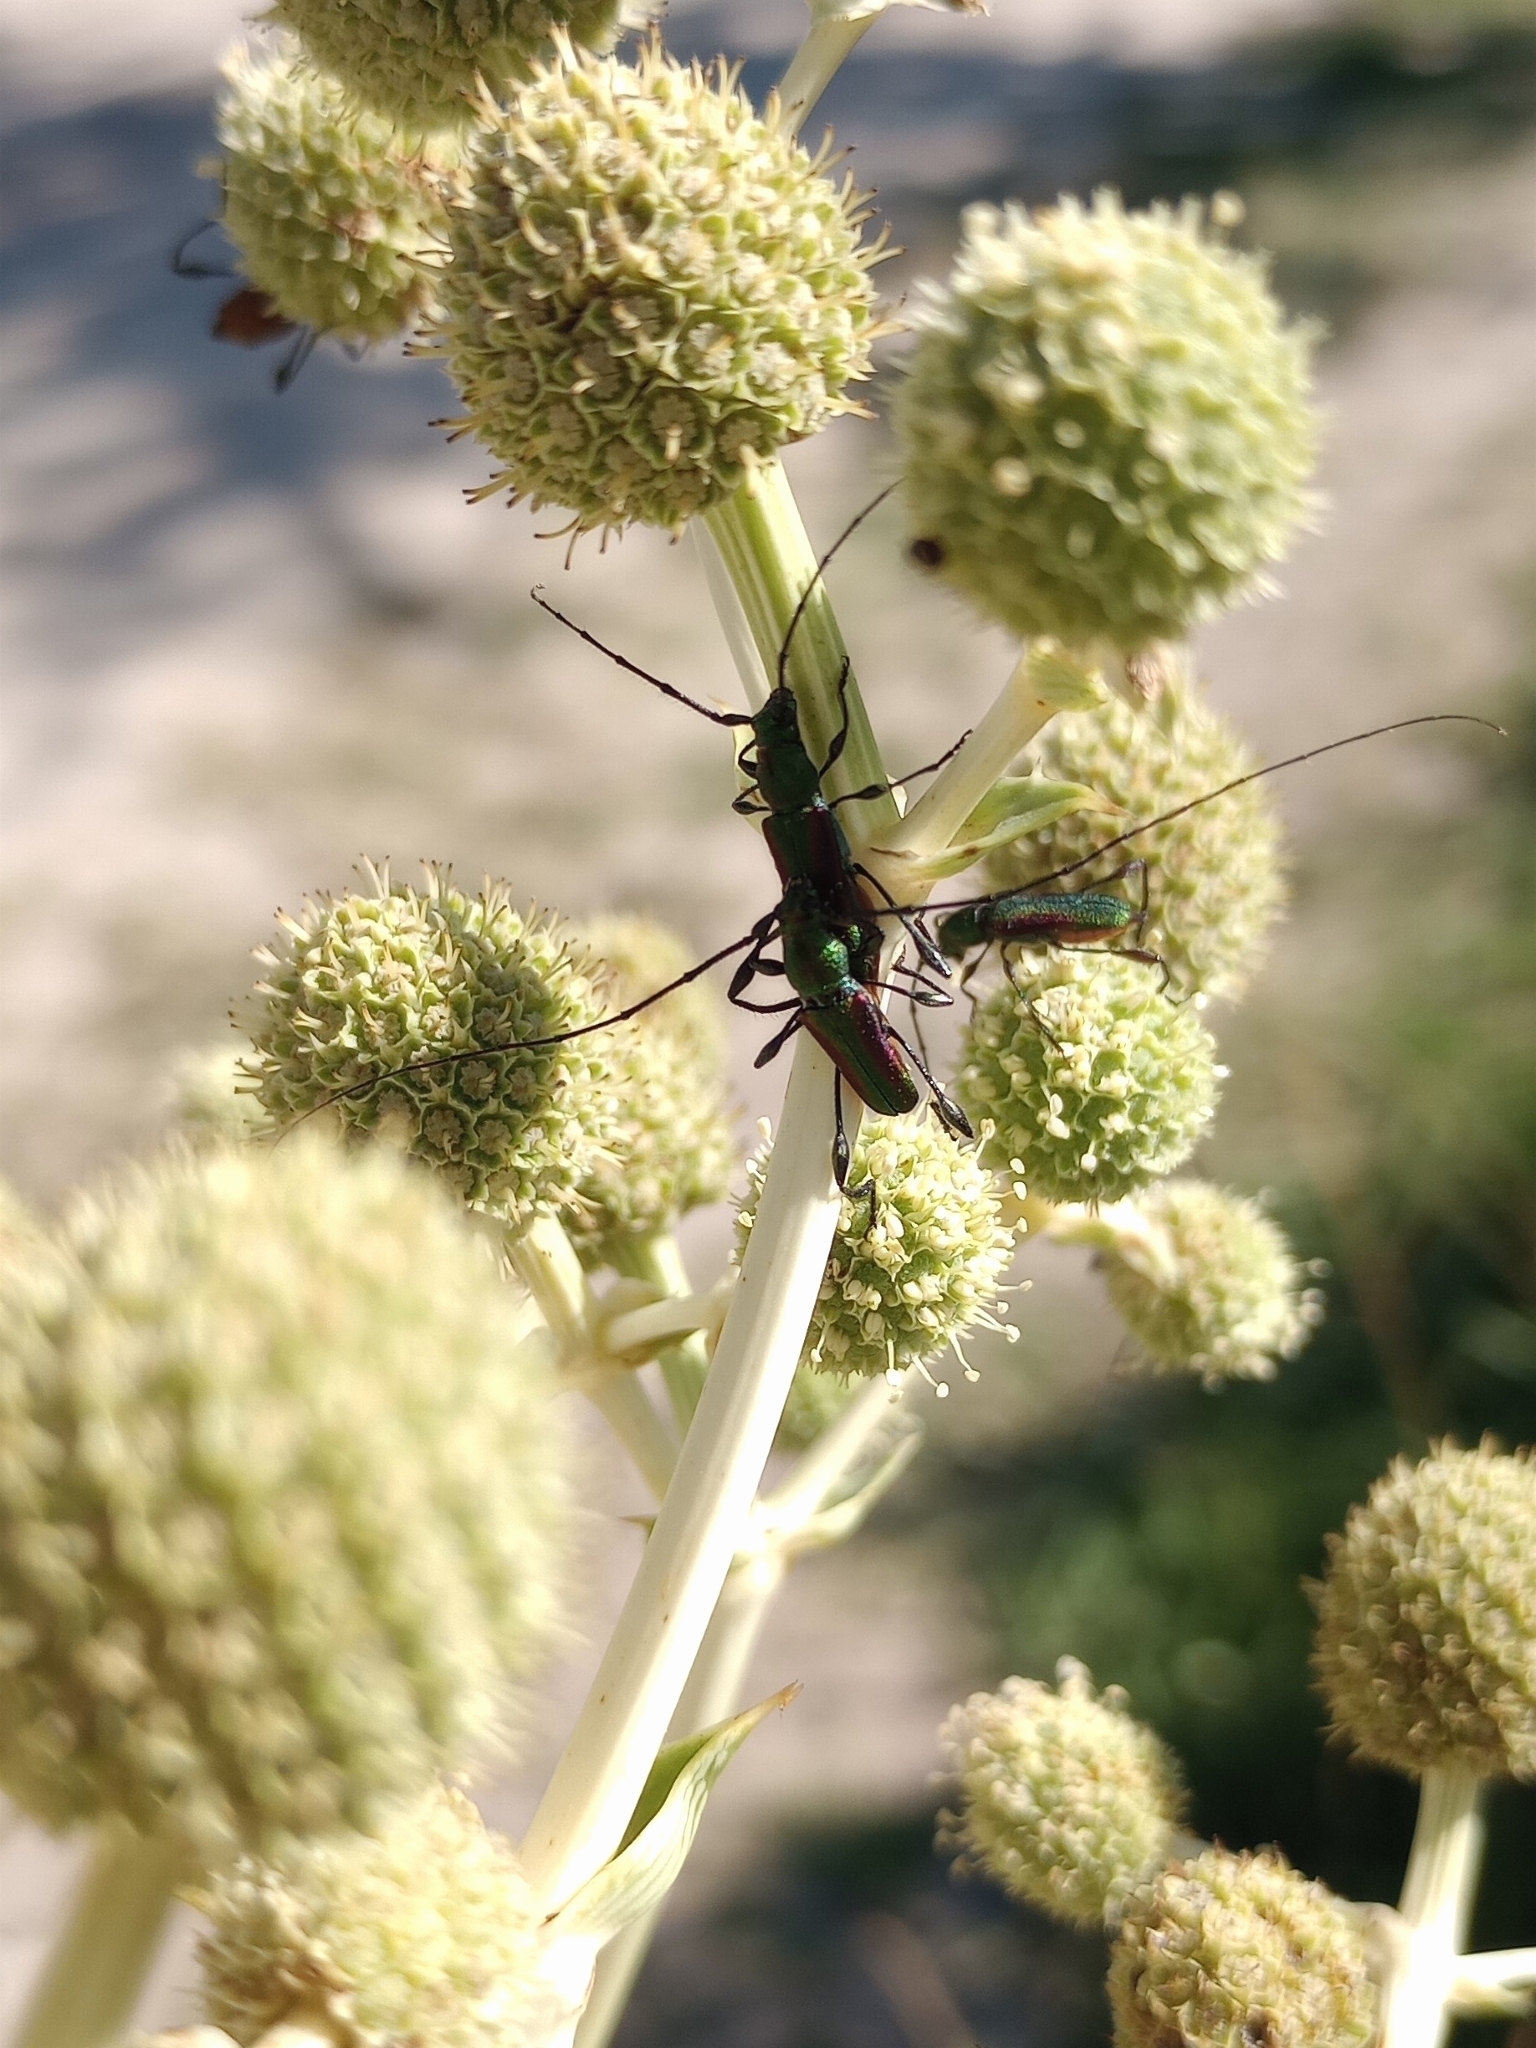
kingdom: Animalia
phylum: Arthropoda
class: Insecta
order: Coleoptera
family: Cerambycidae
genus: Ischionodonta
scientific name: Ischionodonta iridipennis
